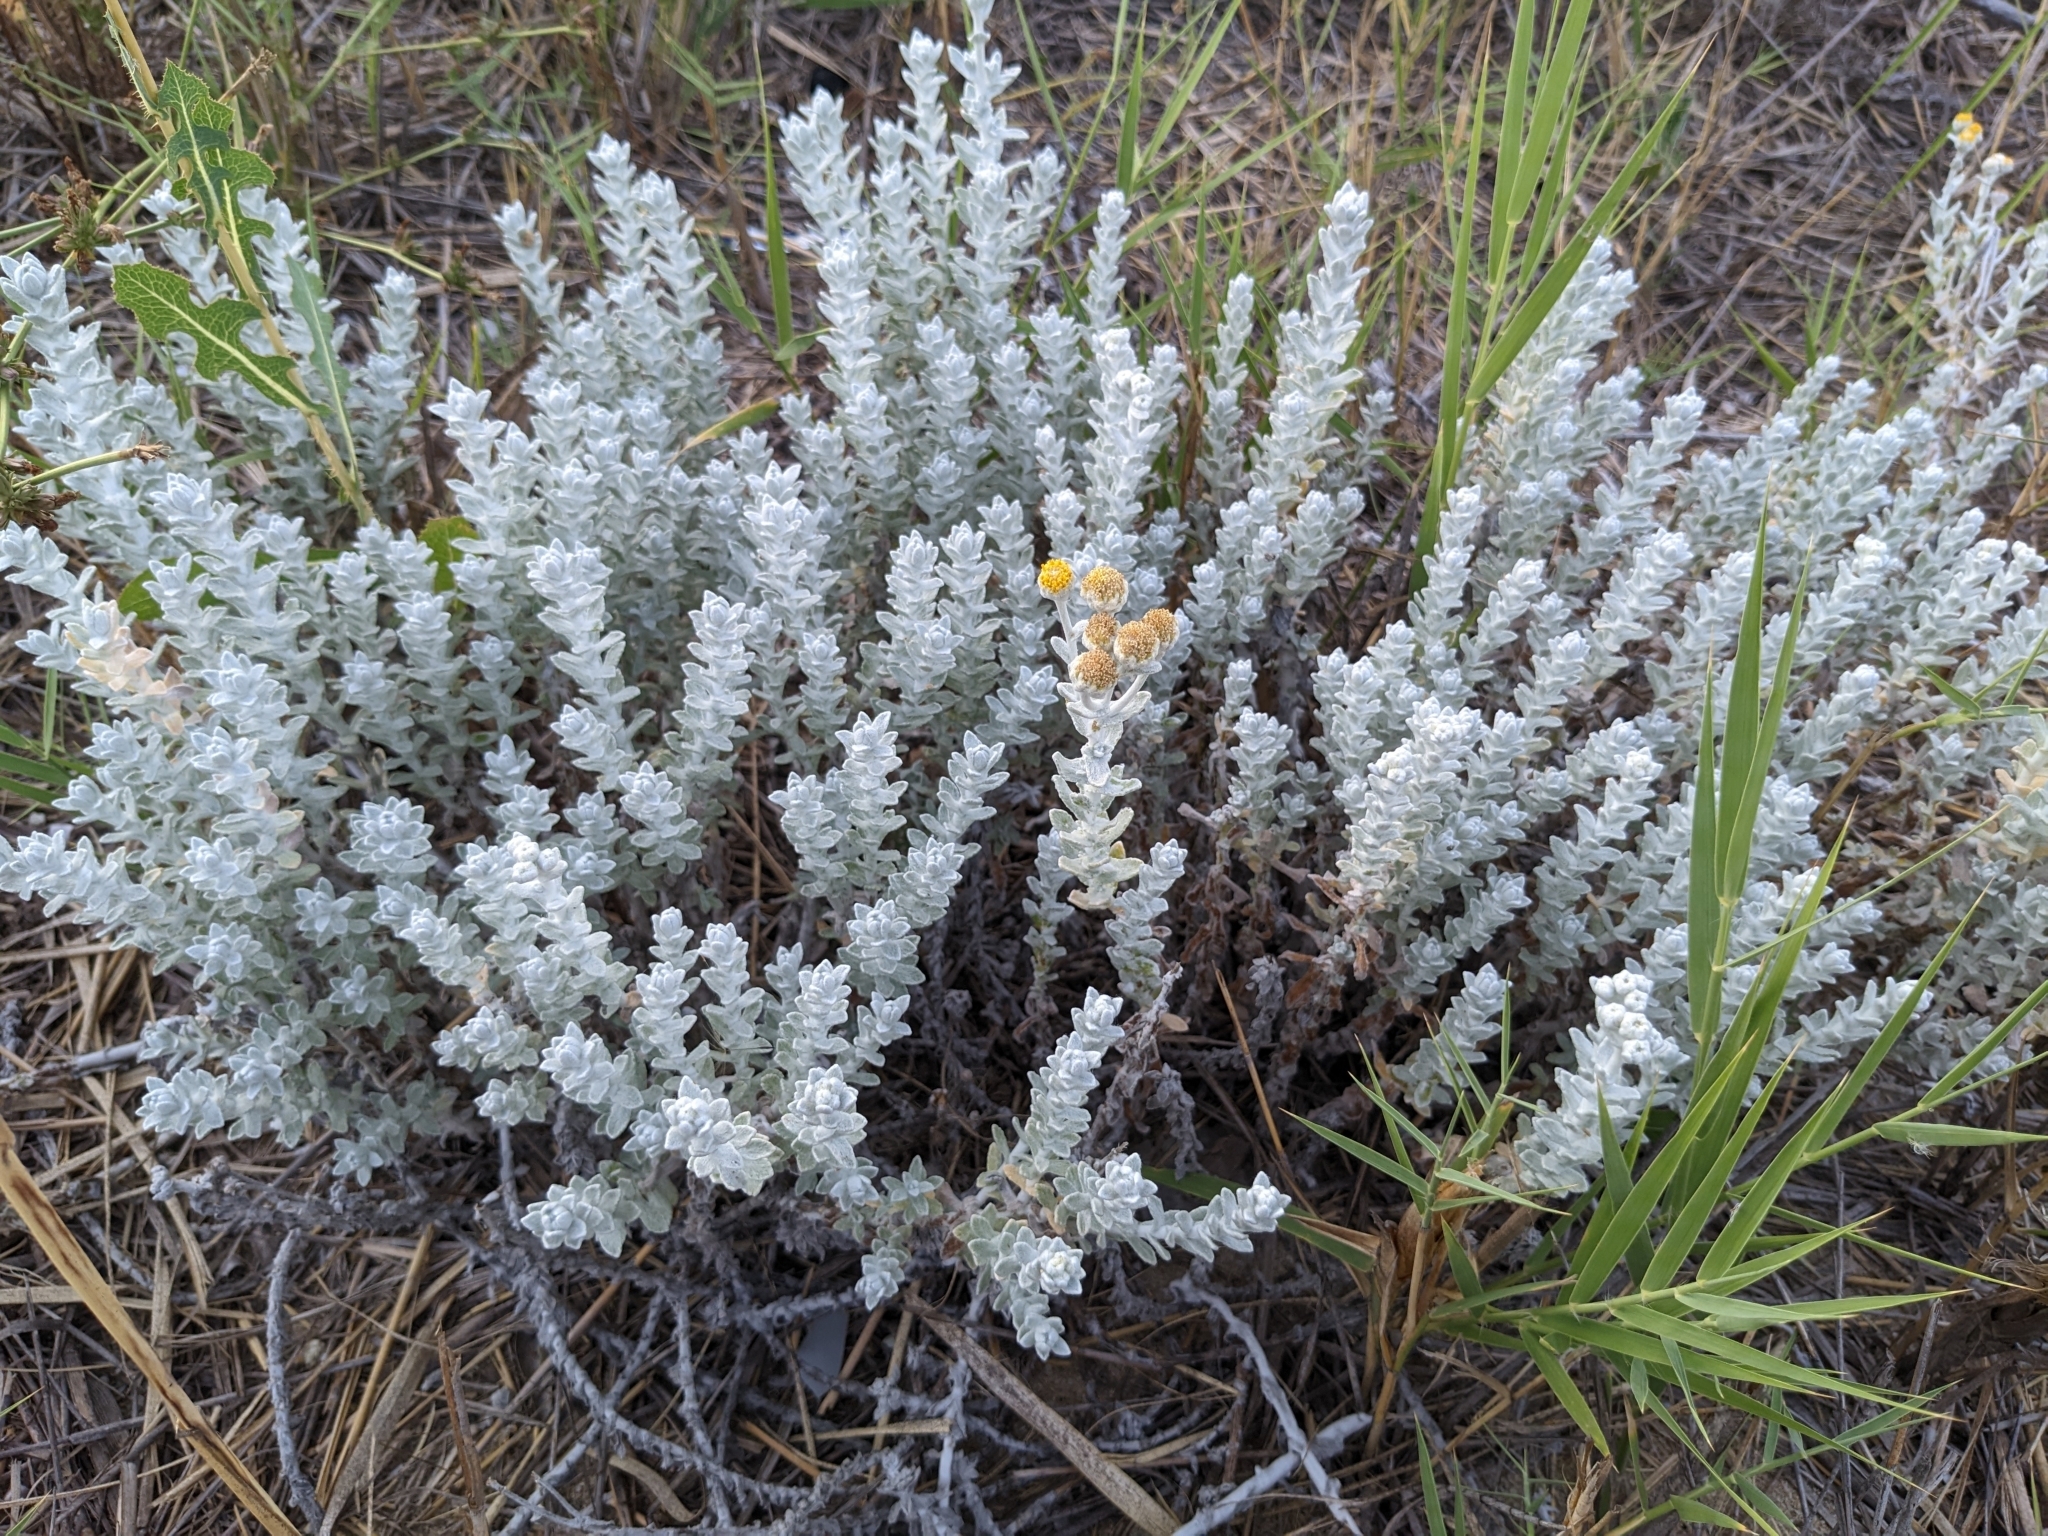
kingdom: Plantae
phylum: Tracheophyta
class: Magnoliopsida
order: Asterales
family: Asteraceae
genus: Achillea
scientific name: Achillea maritima
